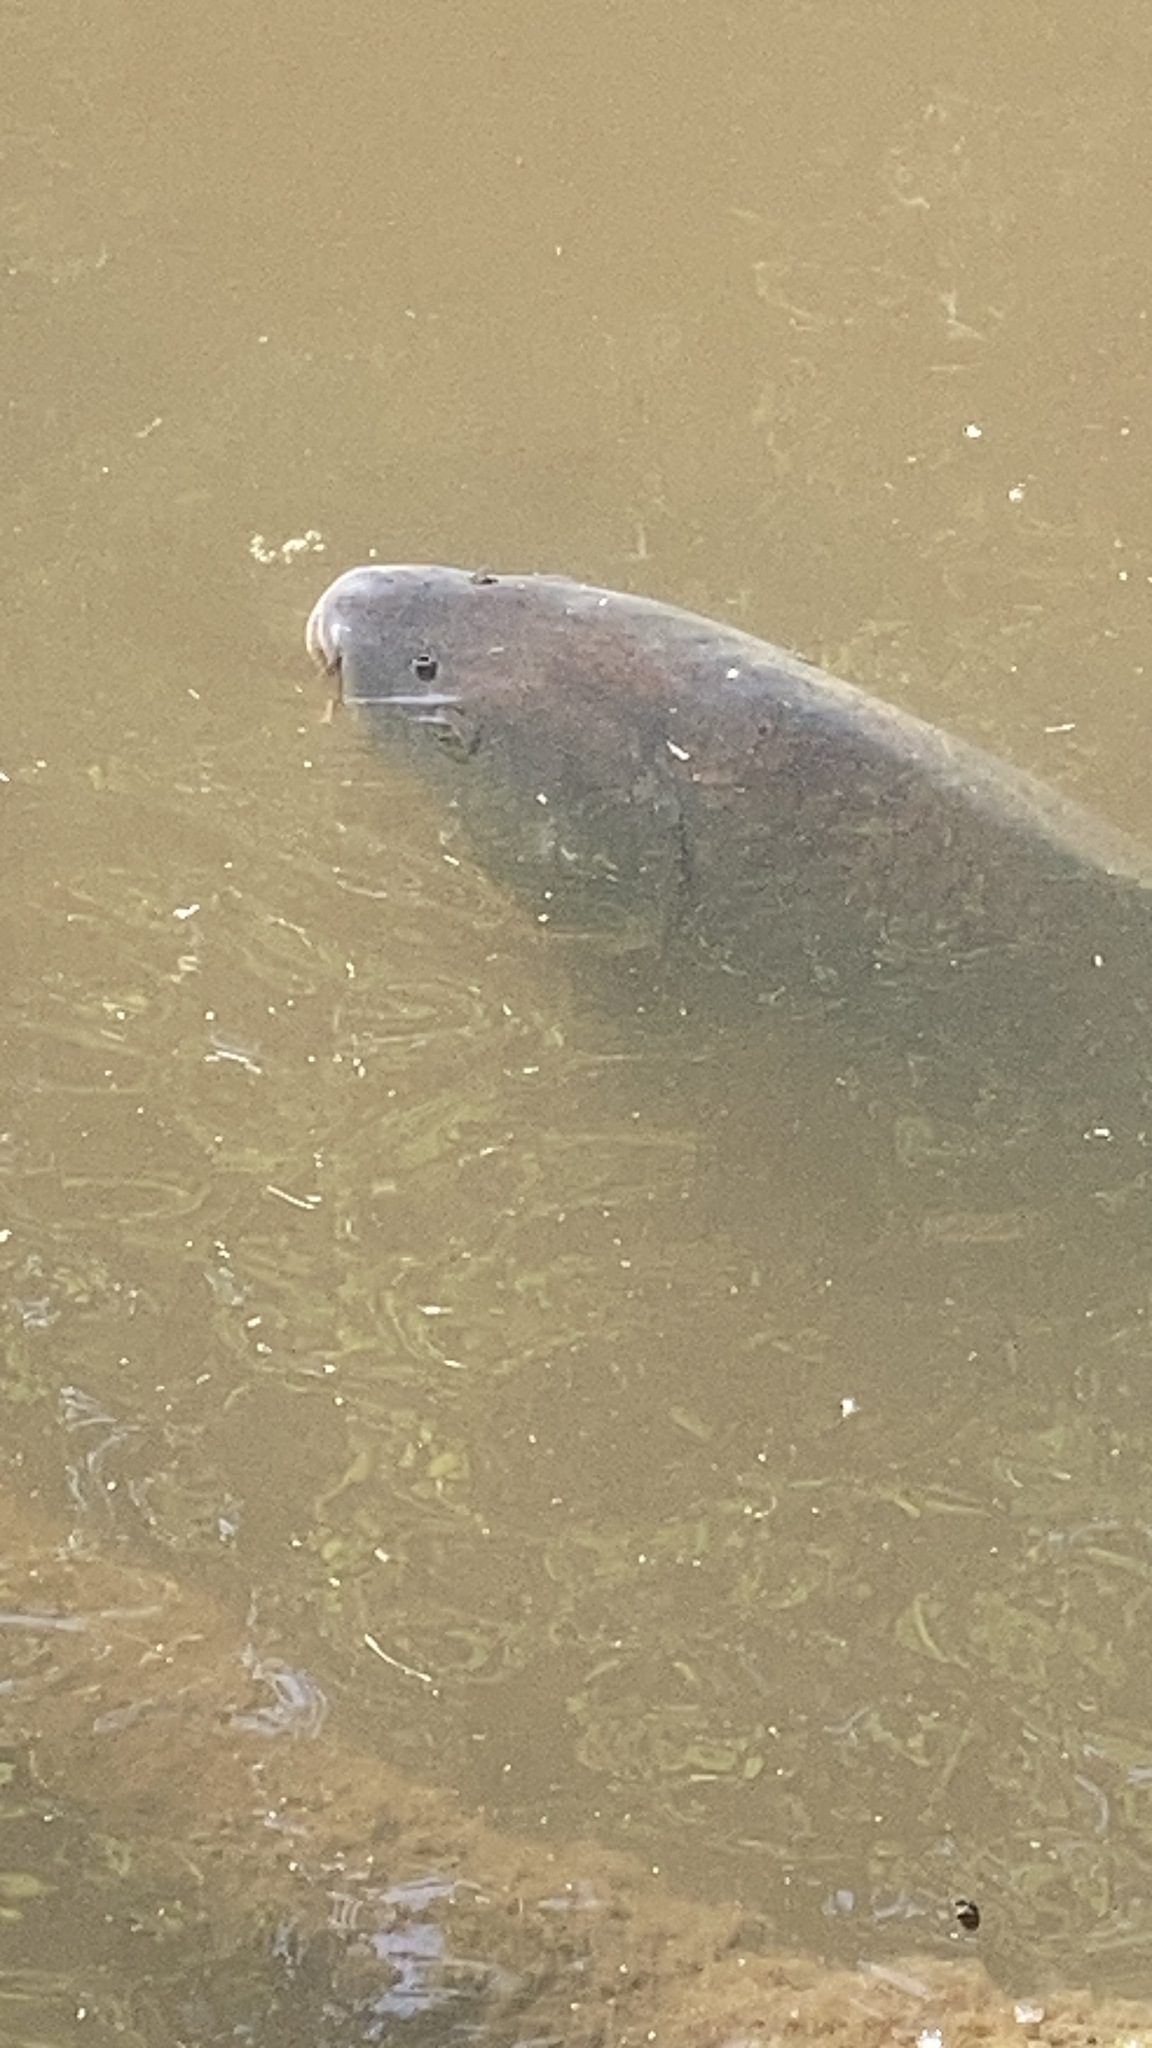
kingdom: Animalia
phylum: Chordata
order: Cypriniformes
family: Cyprinidae
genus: Cyprinus
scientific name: Cyprinus carpio
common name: Common carp
